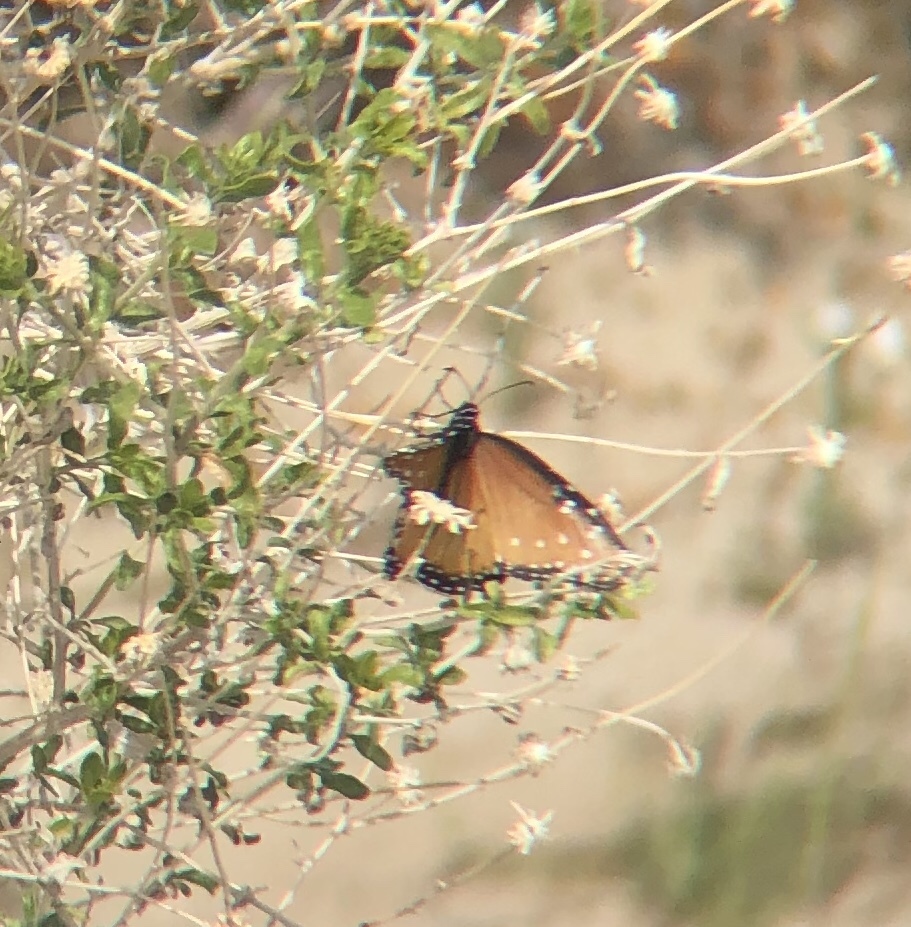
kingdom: Animalia
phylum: Arthropoda
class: Insecta
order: Lepidoptera
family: Nymphalidae
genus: Danaus
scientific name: Danaus gilippus
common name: Queen
